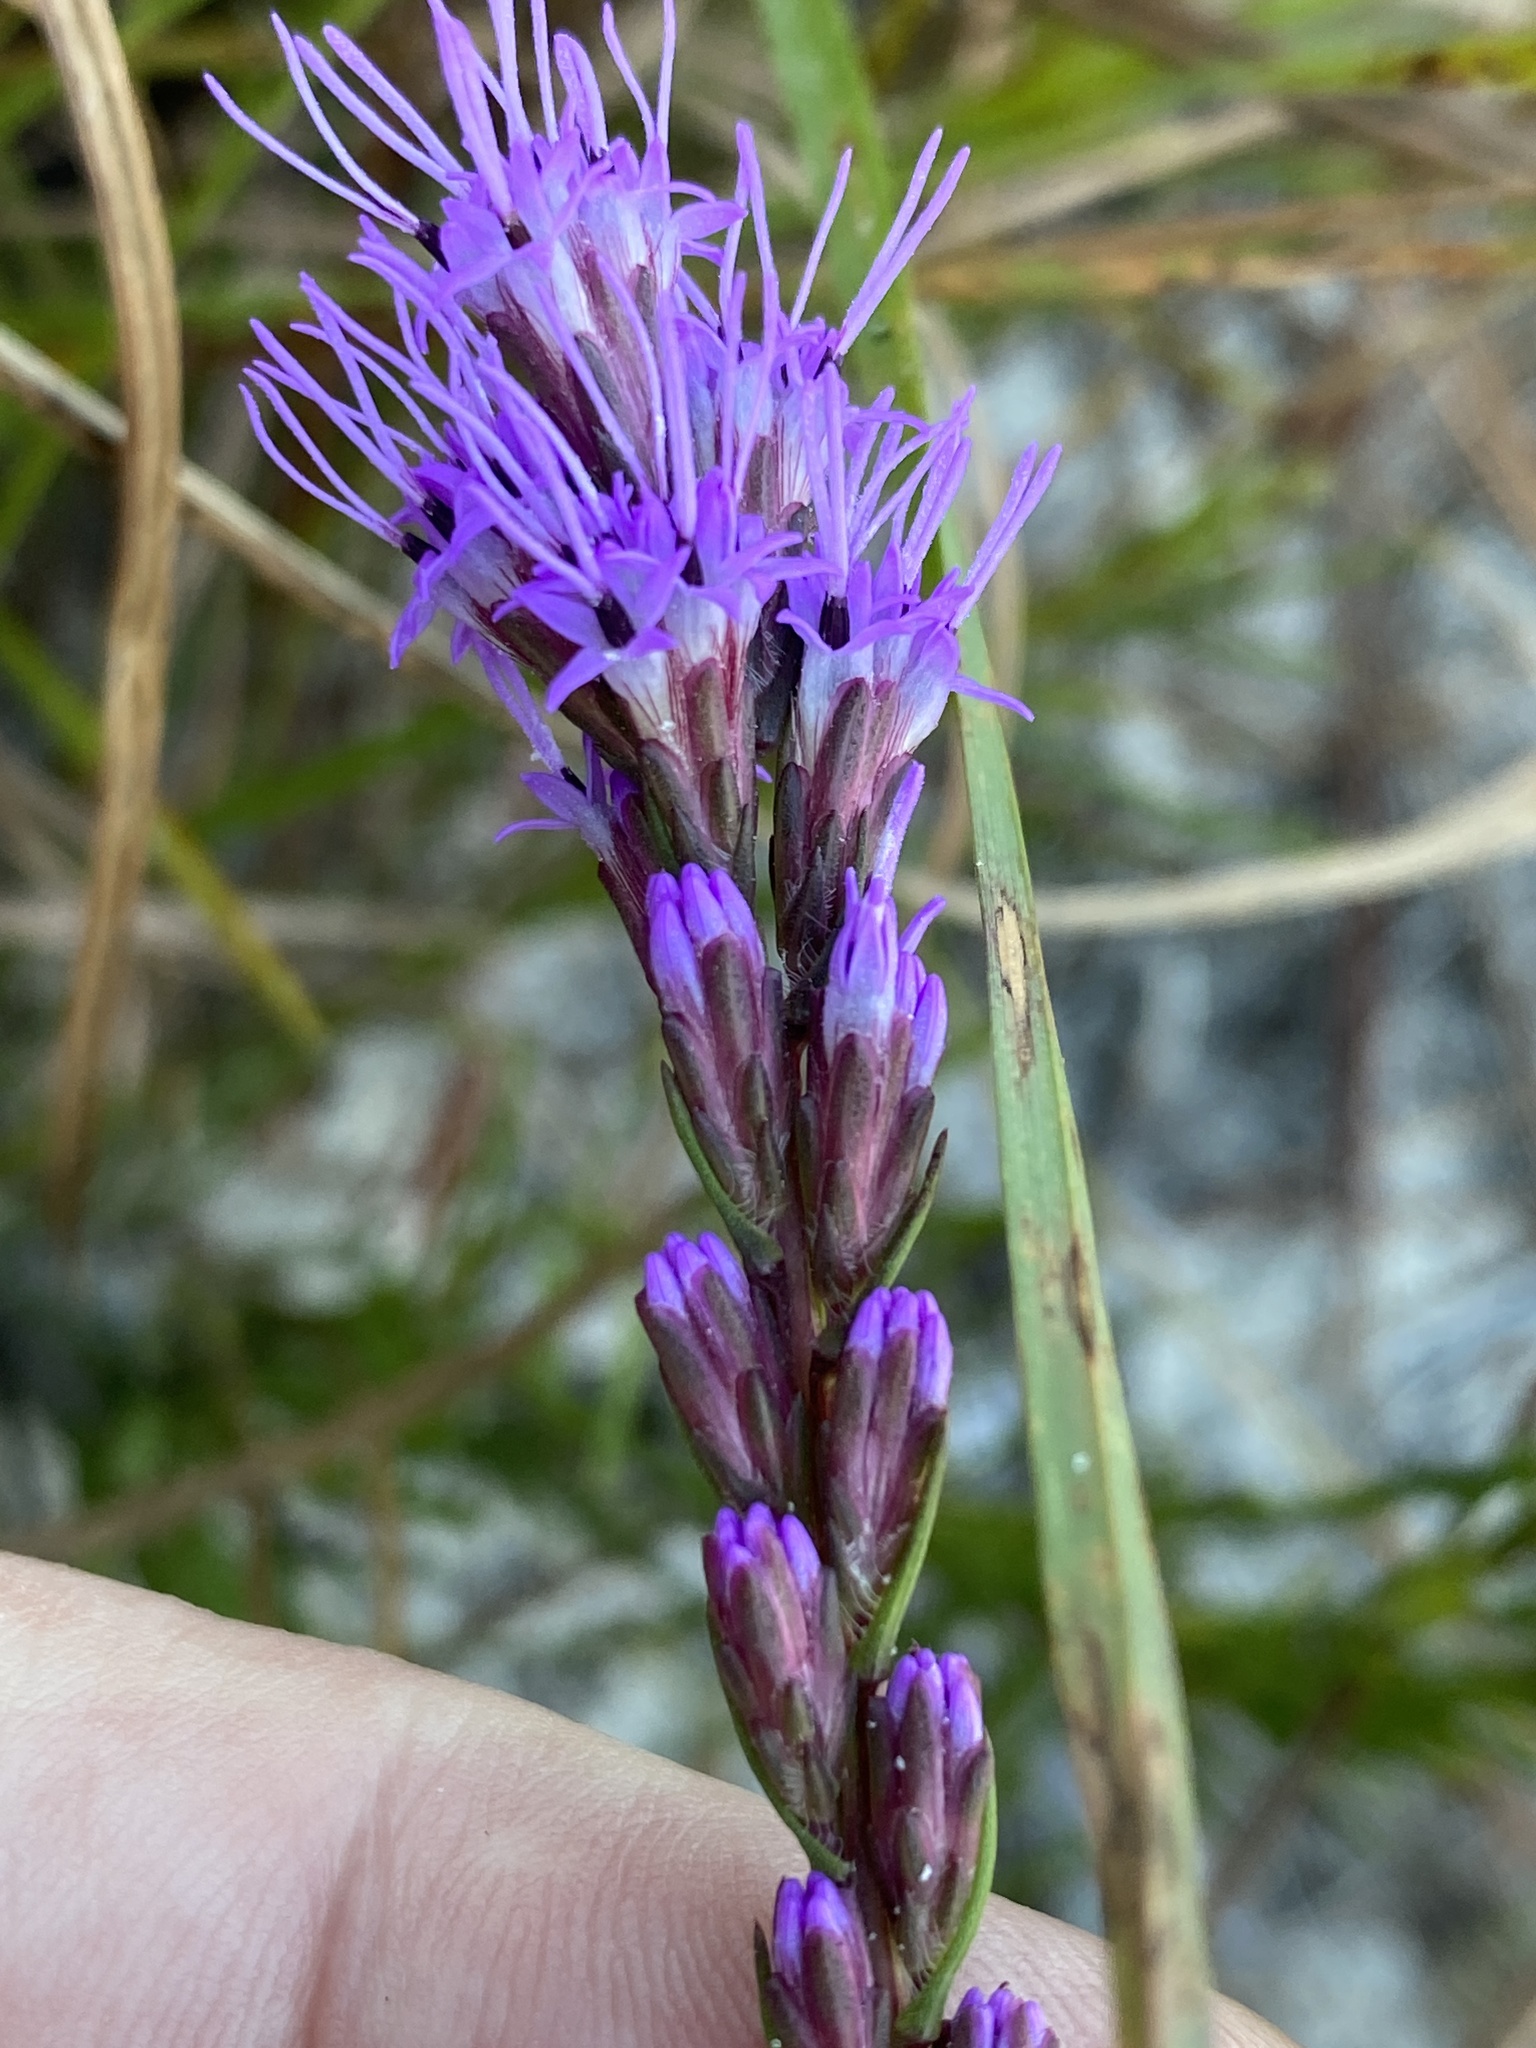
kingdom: Plantae
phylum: Tracheophyta
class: Magnoliopsida
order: Asterales
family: Asteraceae
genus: Liatris
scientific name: Liatris pilosa
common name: Grass-leaf gayfeather
